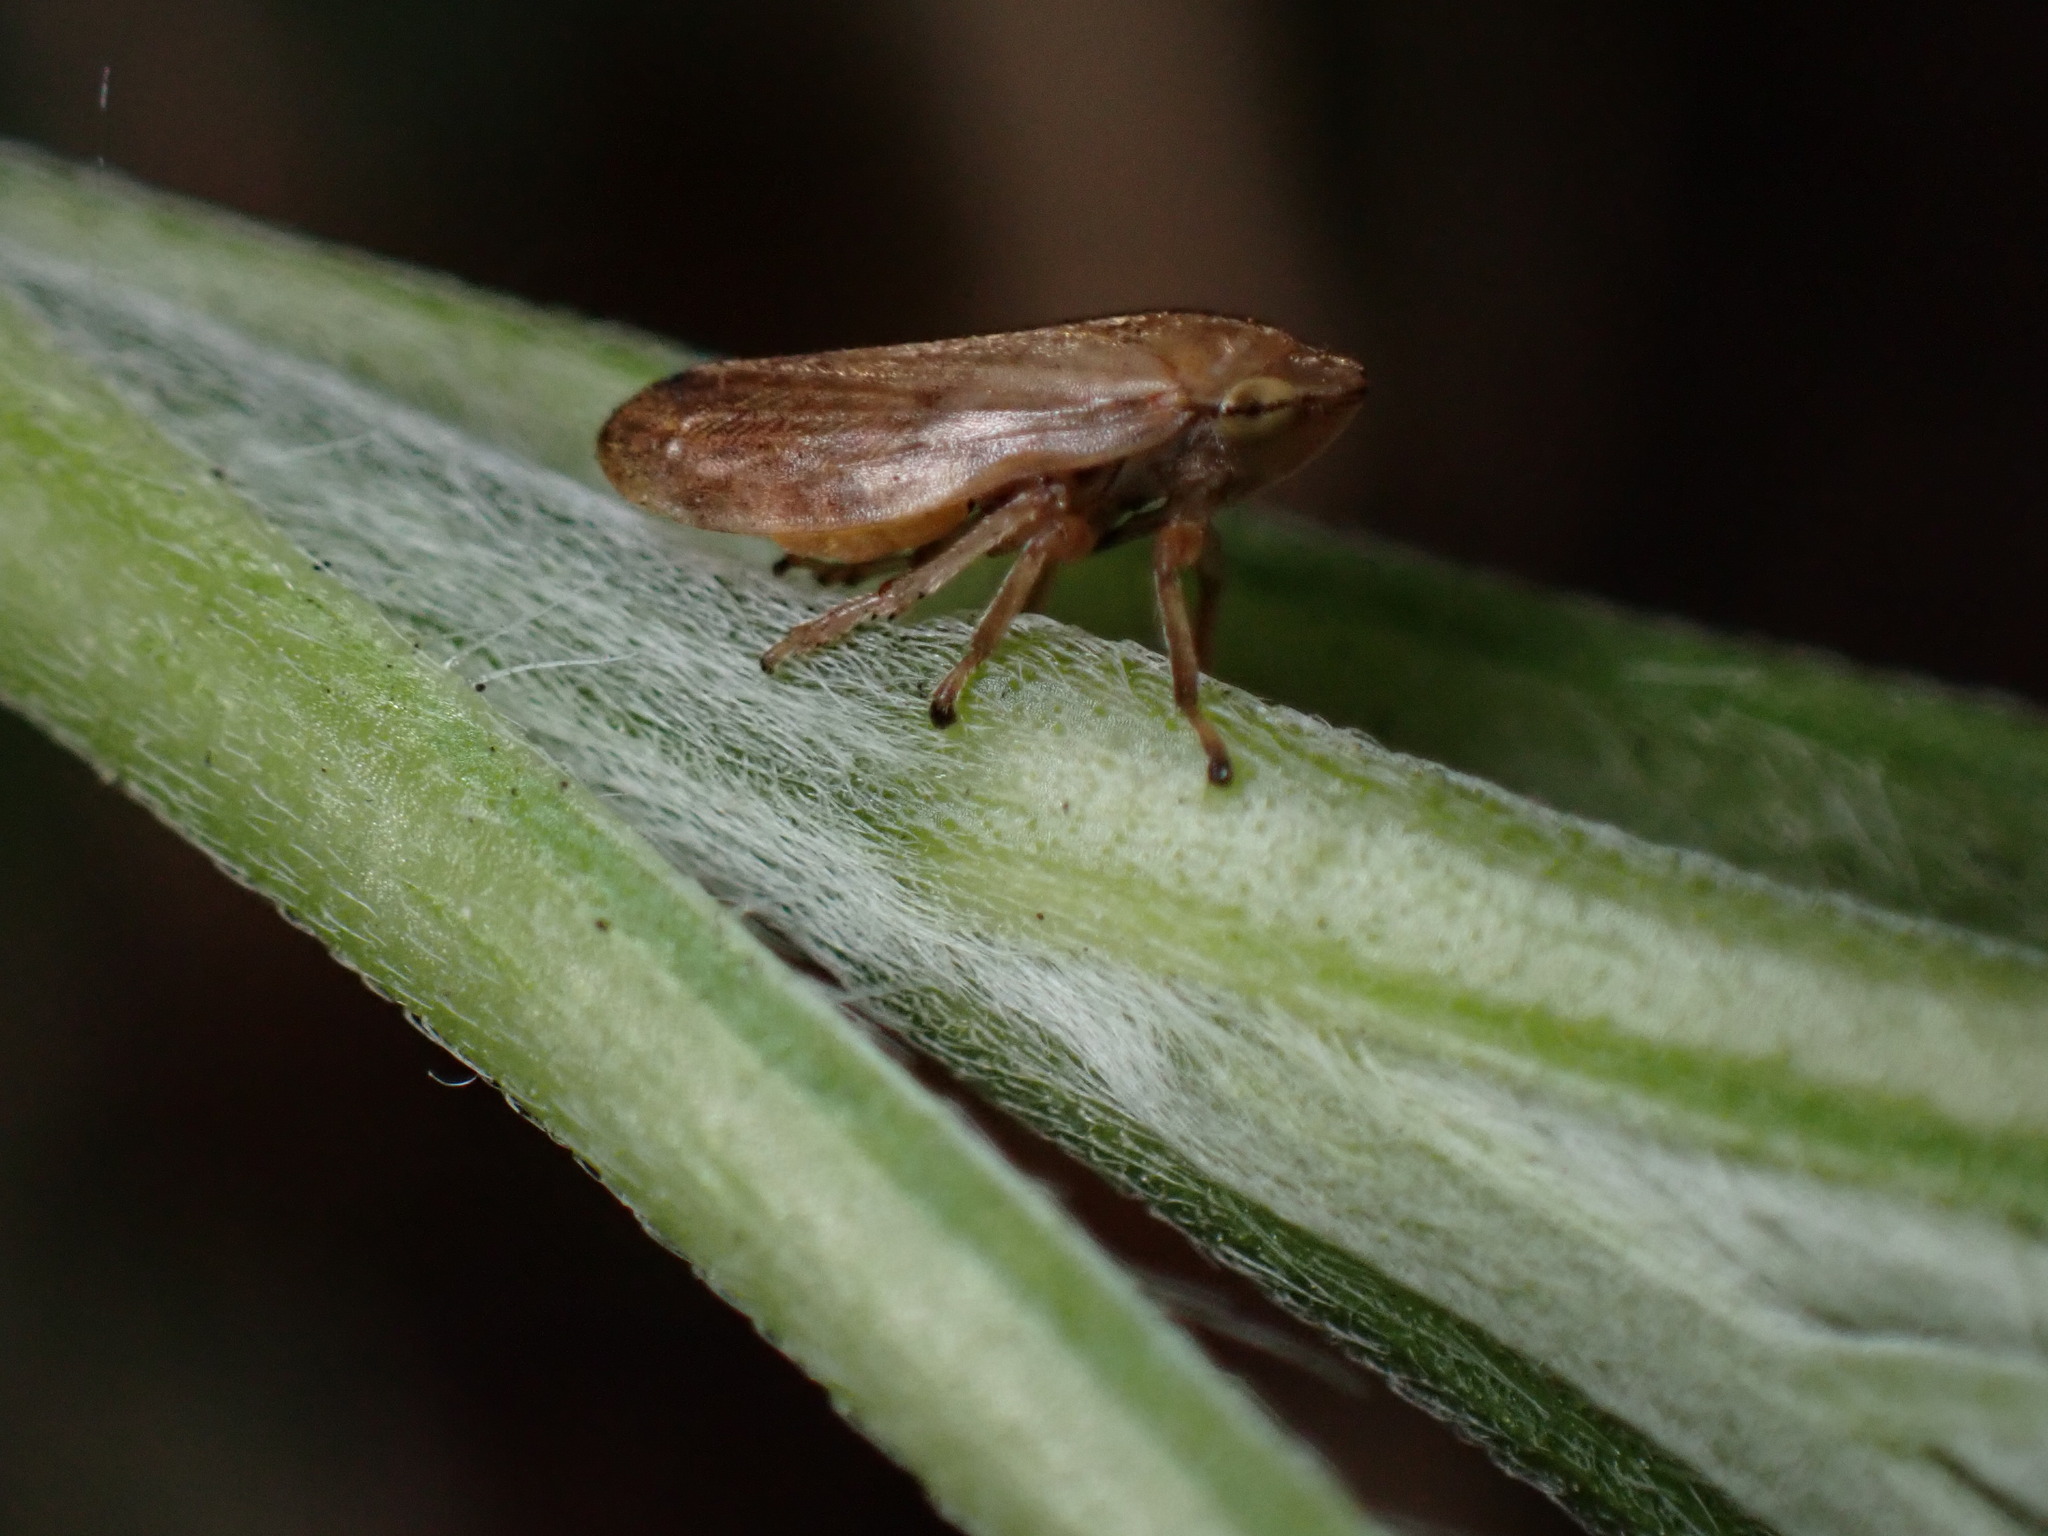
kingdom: Animalia
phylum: Arthropoda
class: Insecta
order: Hemiptera
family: Aphrophoridae
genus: Philaenus
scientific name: Philaenus spumarius
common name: Meadow spittlebug
